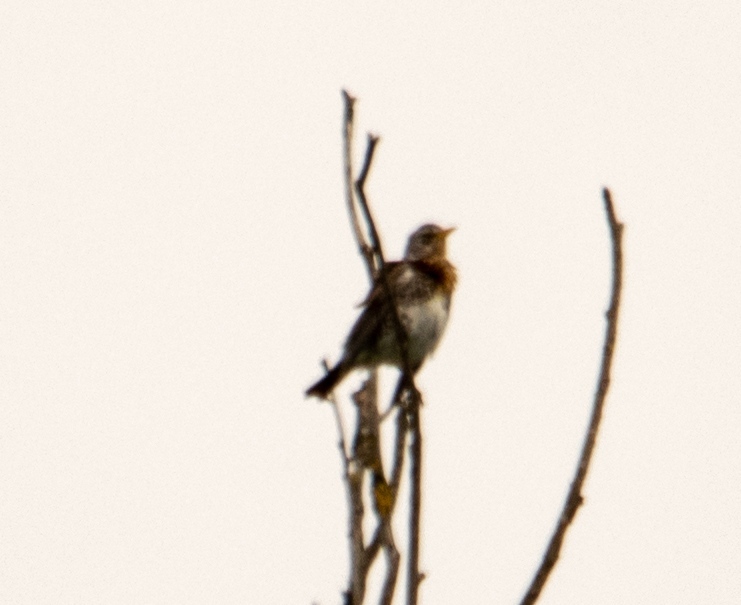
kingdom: Animalia
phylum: Chordata
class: Aves
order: Passeriformes
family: Turdidae
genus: Turdus
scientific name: Turdus pilaris
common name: Fieldfare
